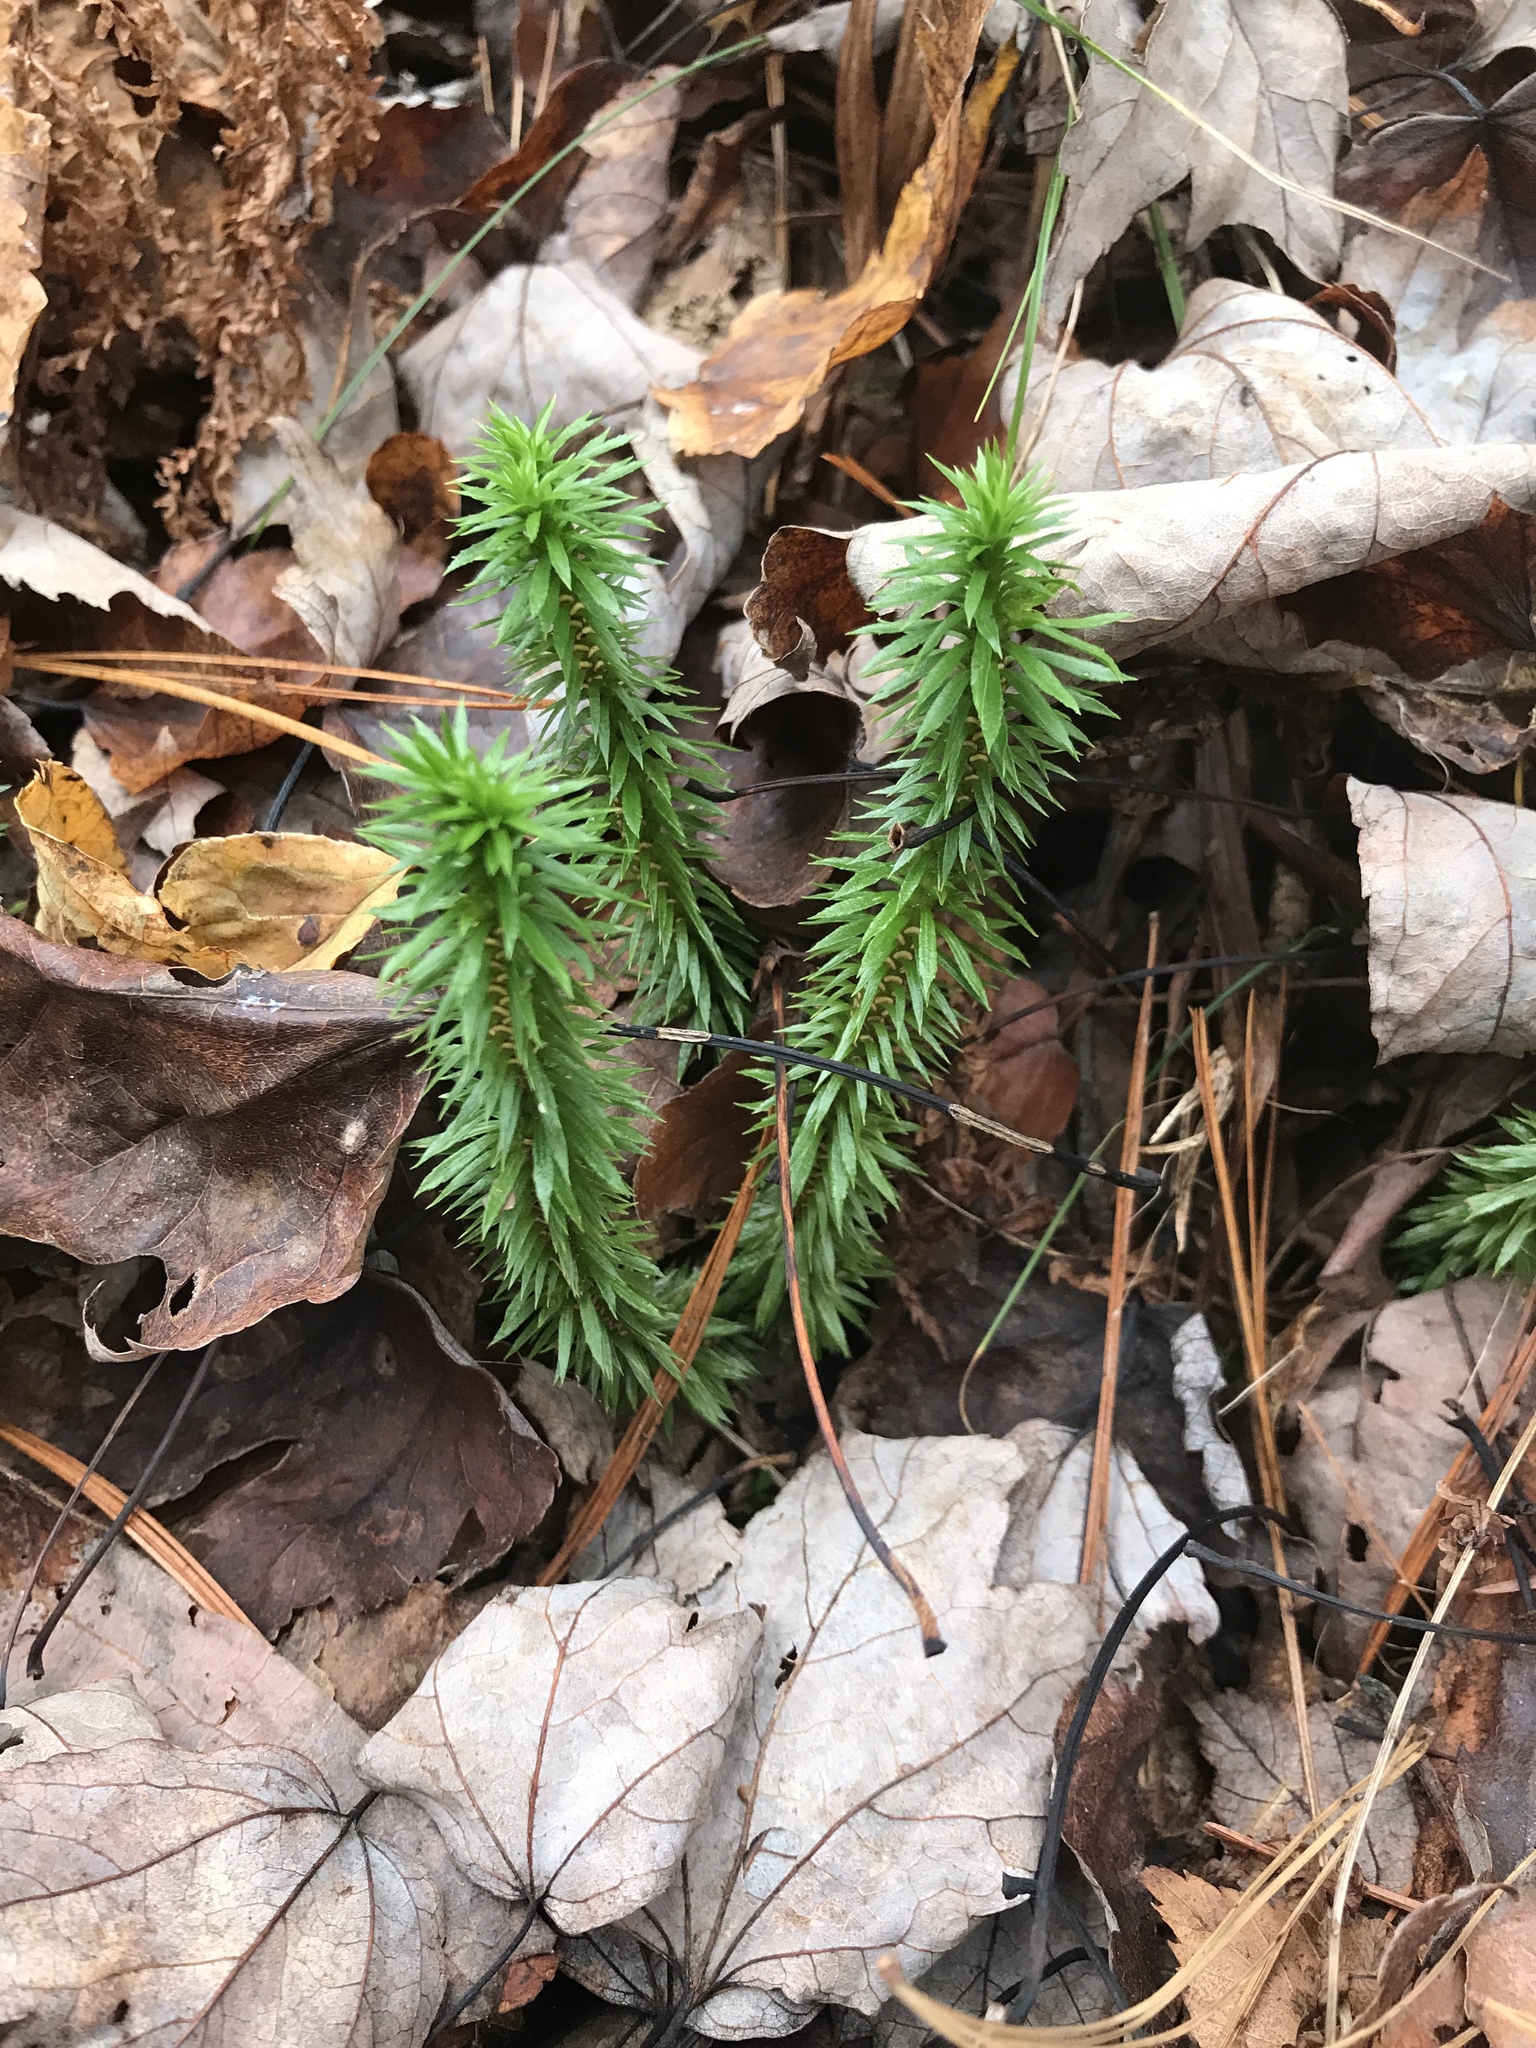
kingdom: Plantae
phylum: Tracheophyta
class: Lycopodiopsida
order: Lycopodiales
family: Lycopodiaceae
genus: Huperzia
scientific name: Huperzia lucidula
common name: Shining clubmoss
